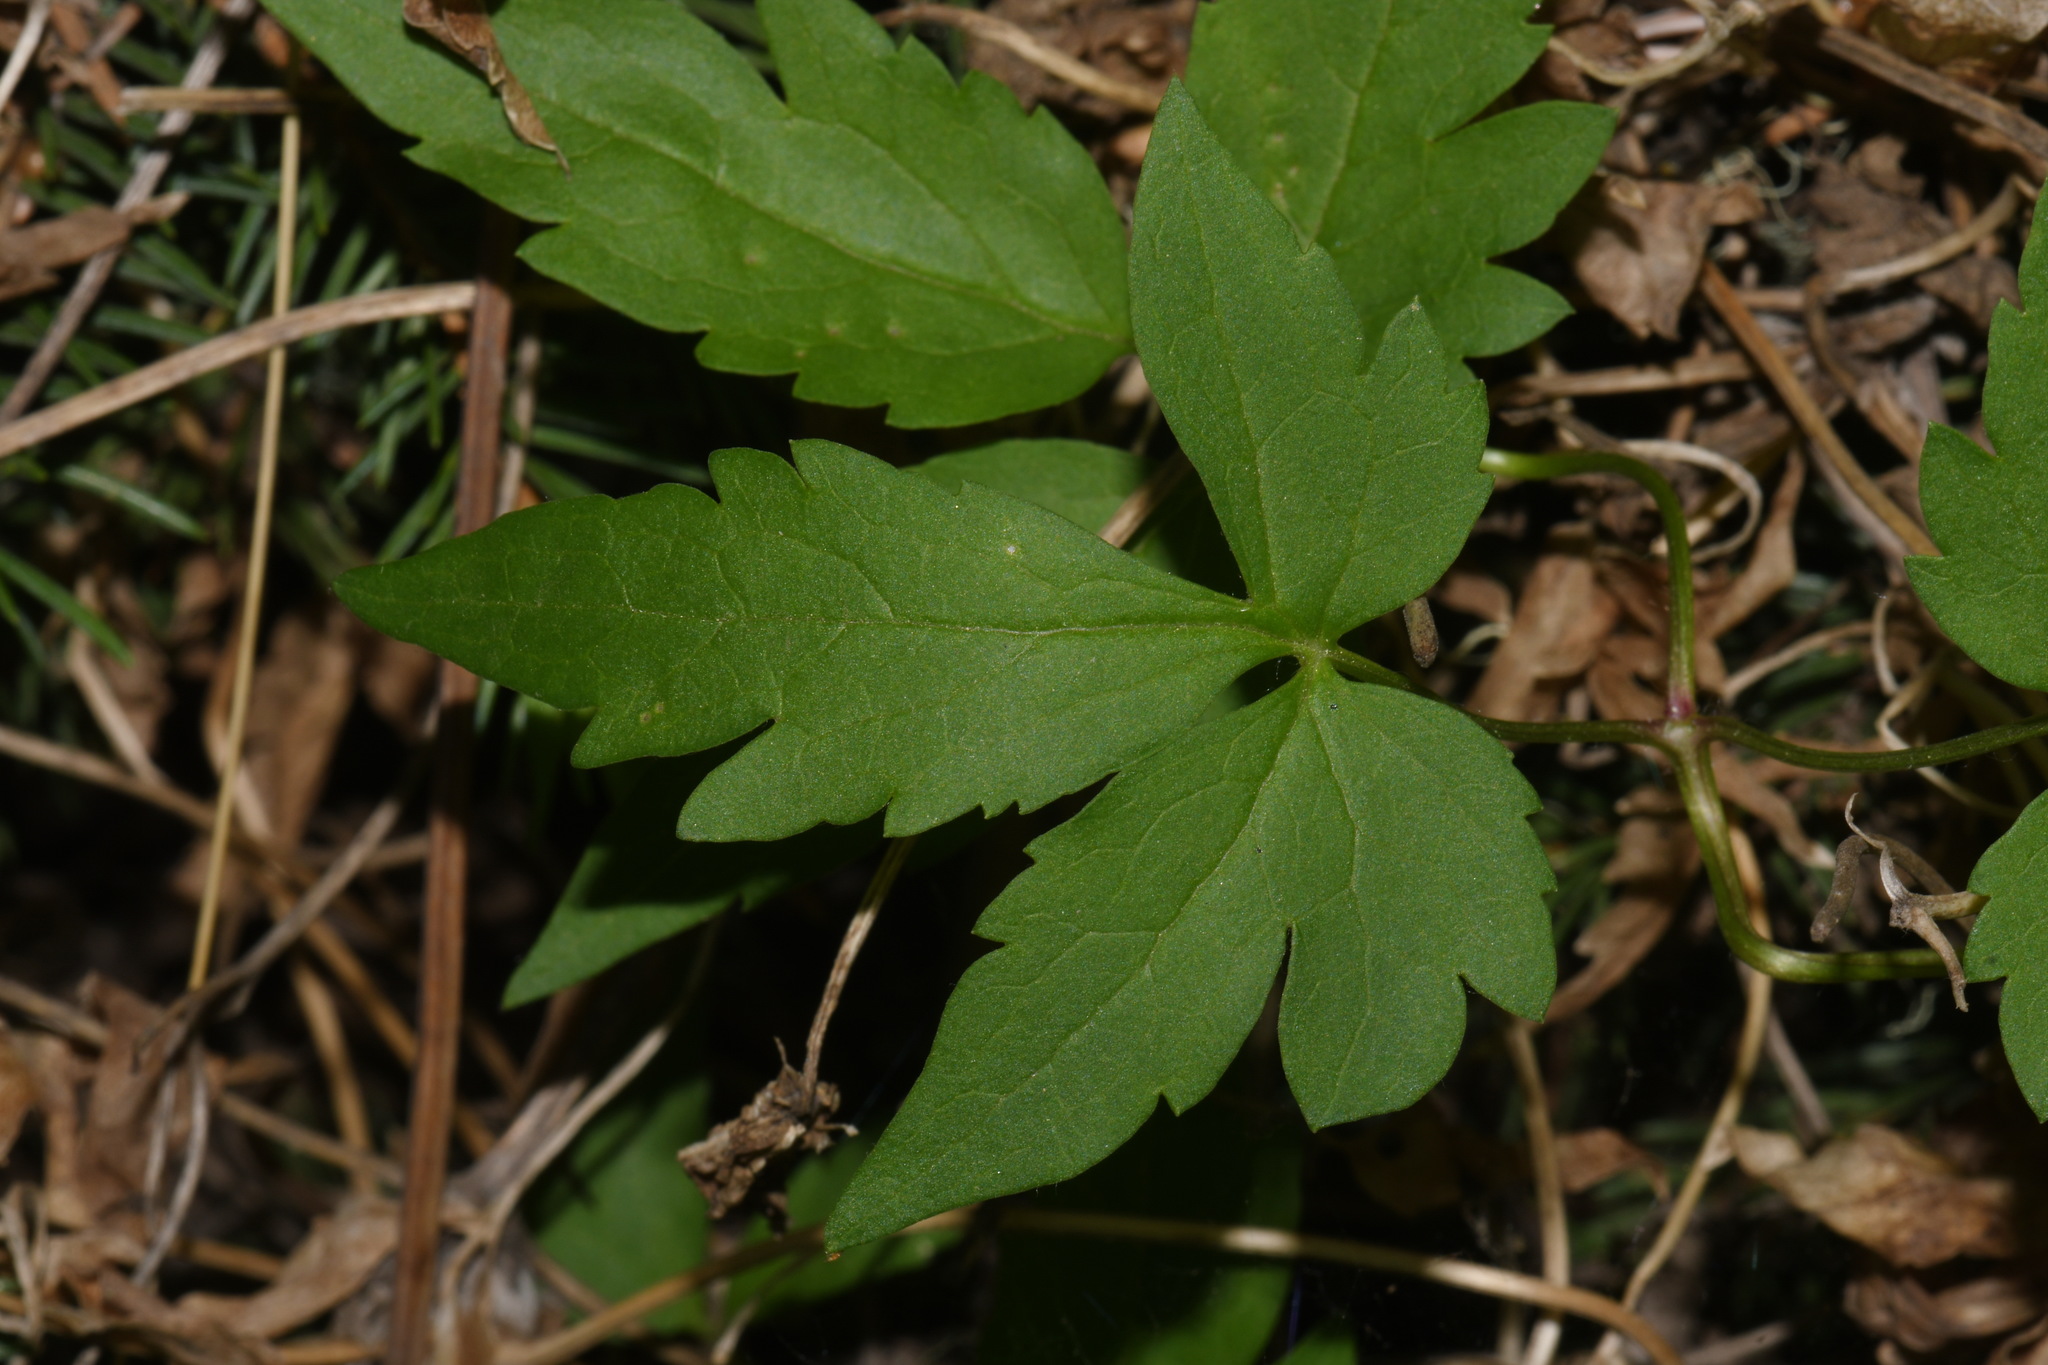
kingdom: Plantae
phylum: Tracheophyta
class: Magnoliopsida
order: Ranunculales
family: Ranunculaceae
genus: Clematis
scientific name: Clematis columbiana
